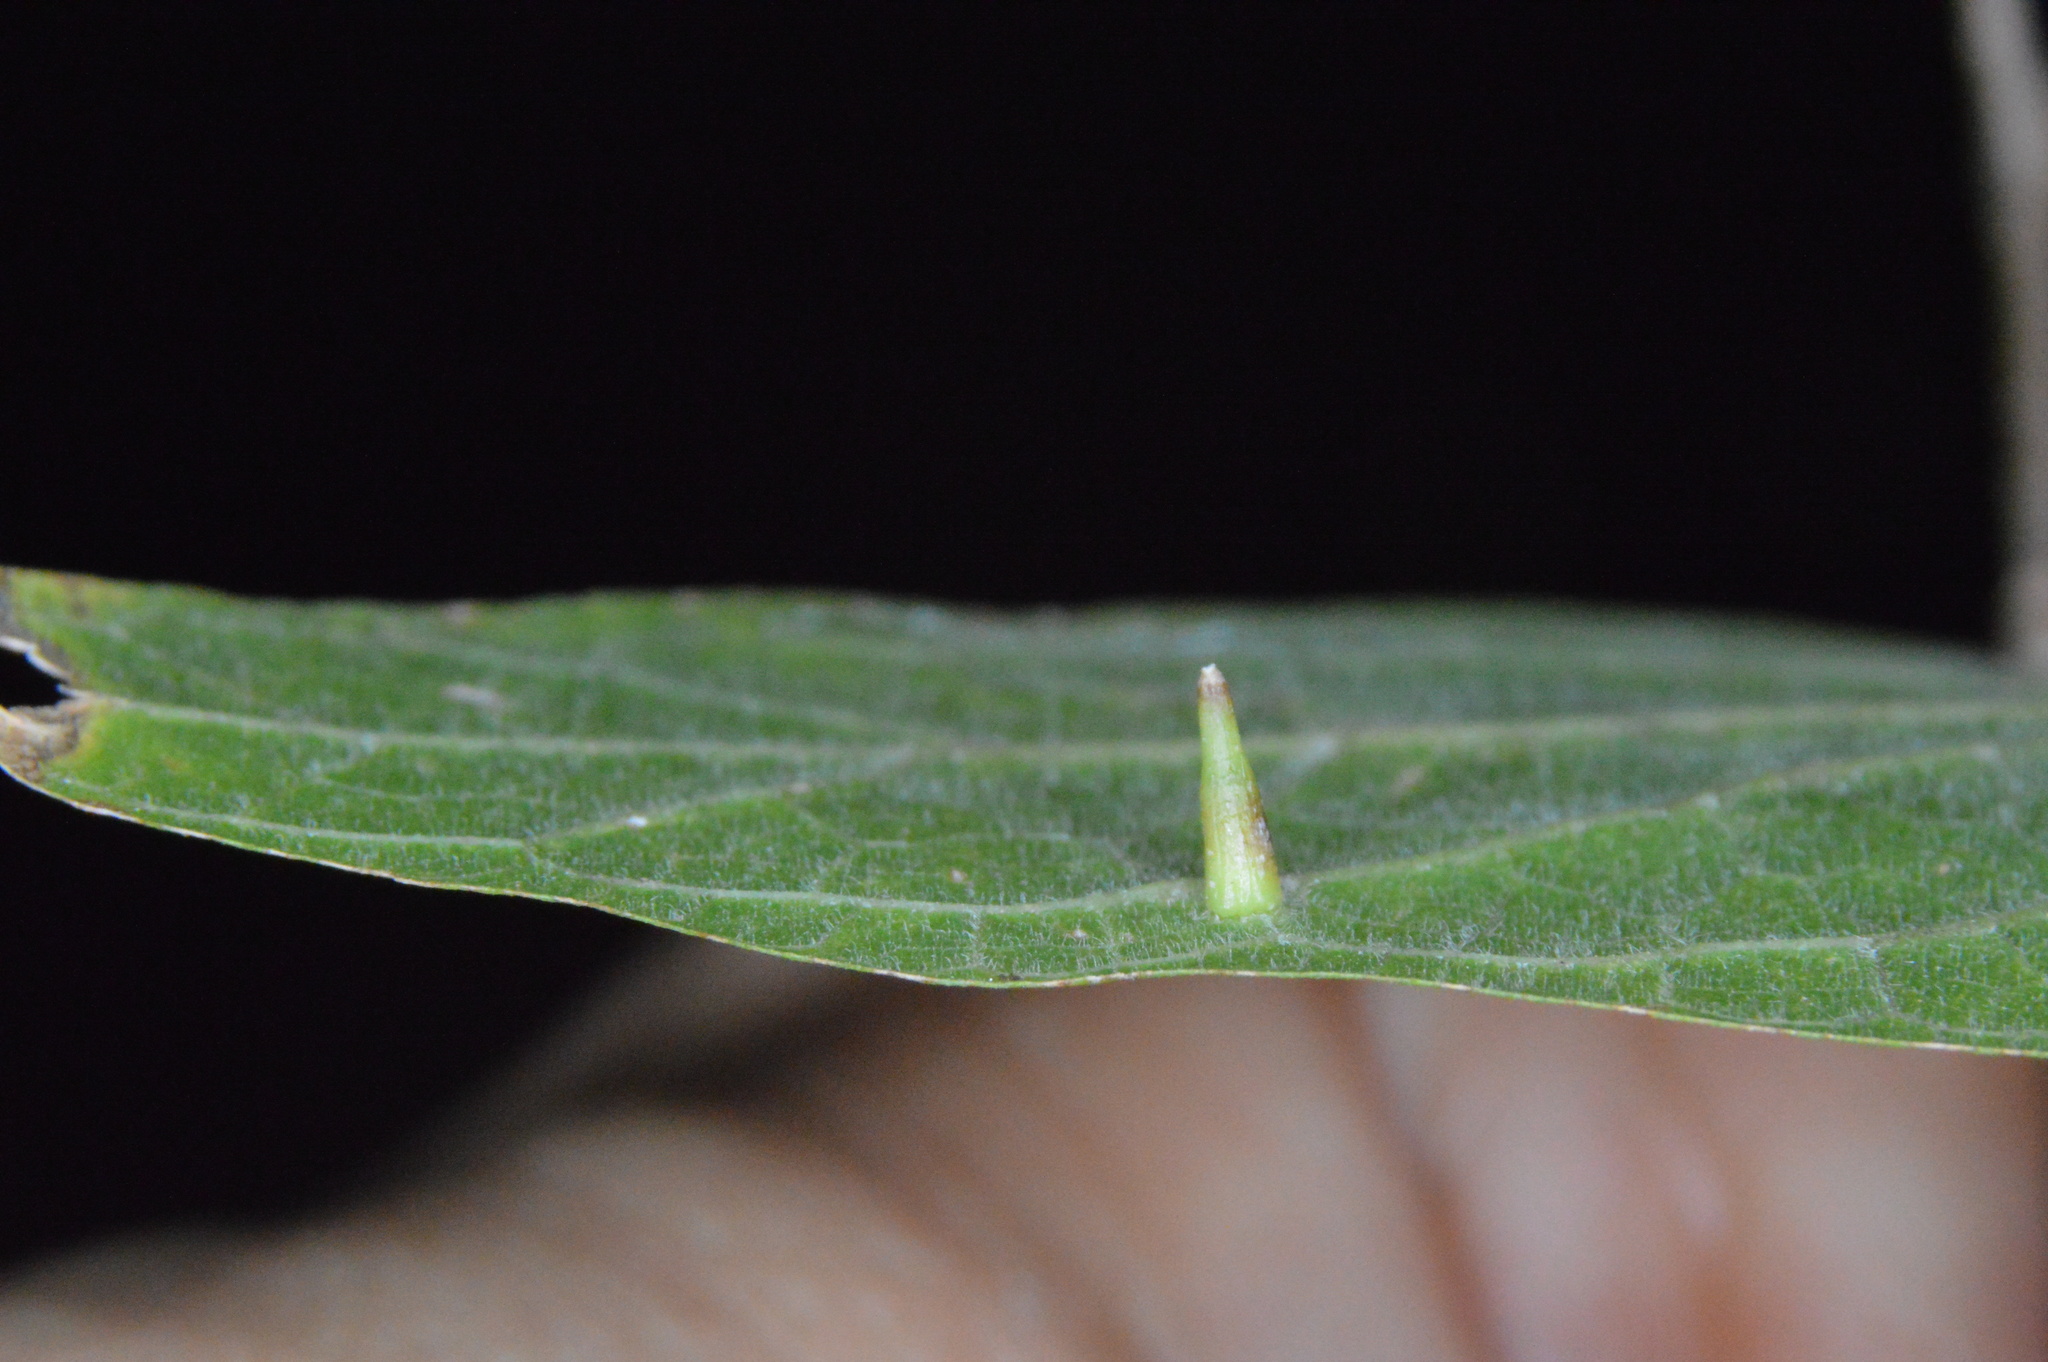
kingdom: Animalia
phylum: Arthropoda
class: Insecta
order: Diptera
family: Cecidomyiidae
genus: Celticecis
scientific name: Celticecis subulata
